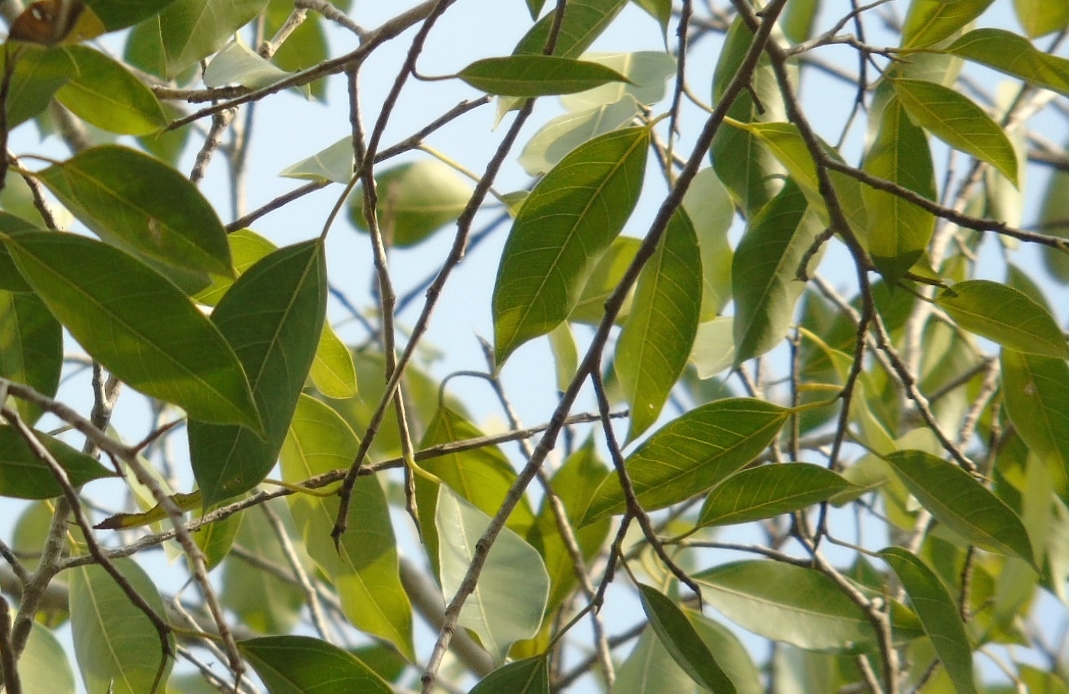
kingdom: Plantae
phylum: Tracheophyta
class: Magnoliopsida
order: Rosales
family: Moraceae
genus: Ficus
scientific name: Ficus pertusa
